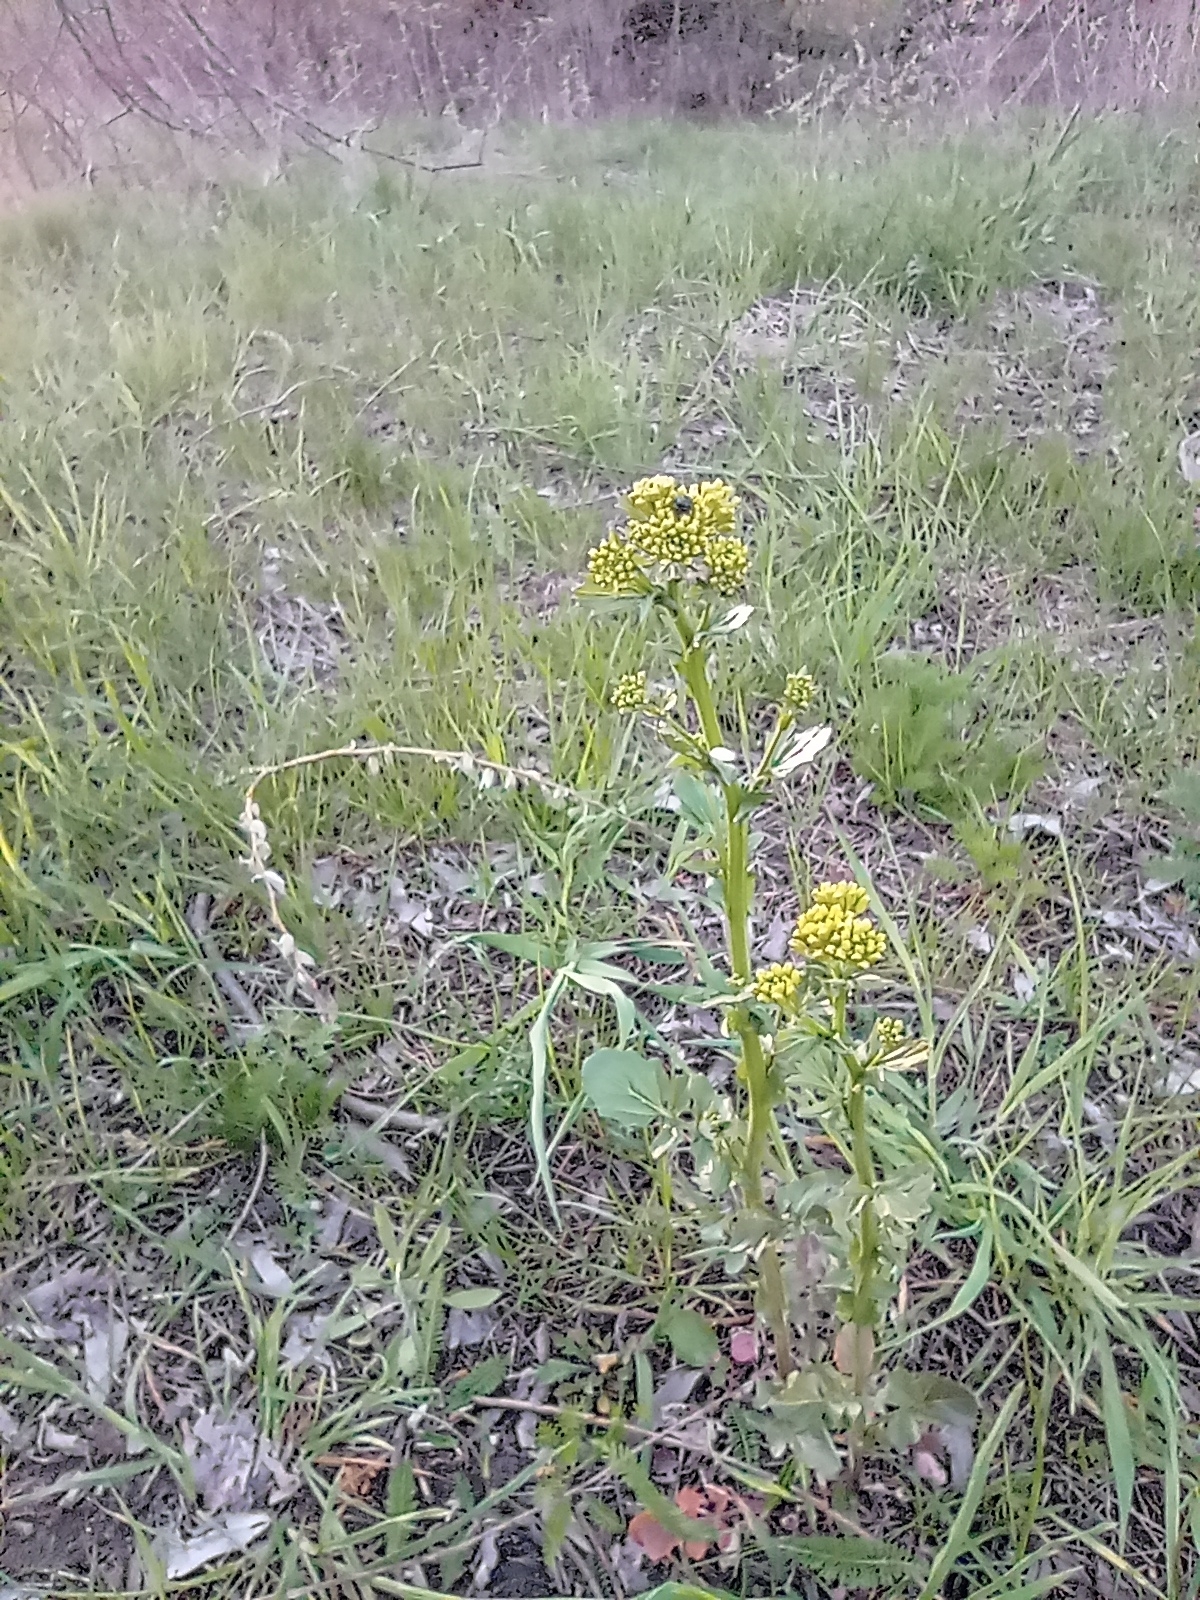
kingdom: Plantae
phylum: Tracheophyta
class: Magnoliopsida
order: Brassicales
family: Brassicaceae
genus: Barbarea
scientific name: Barbarea vulgaris
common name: Cressy-greens
